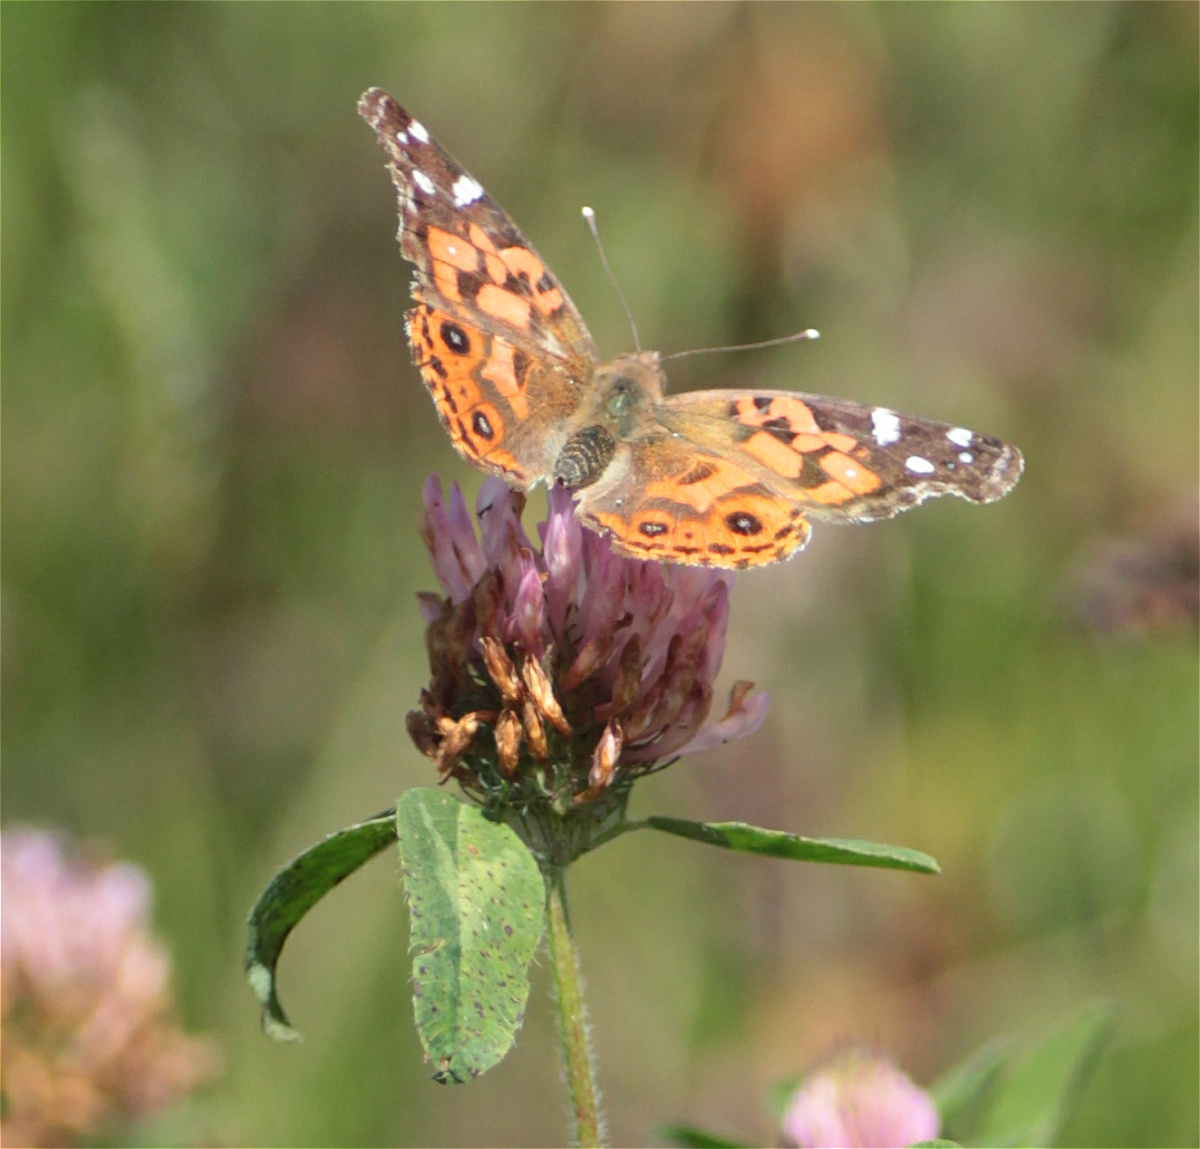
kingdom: Animalia
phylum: Arthropoda
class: Insecta
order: Lepidoptera
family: Nymphalidae
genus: Vanessa
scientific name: Vanessa braziliensis
